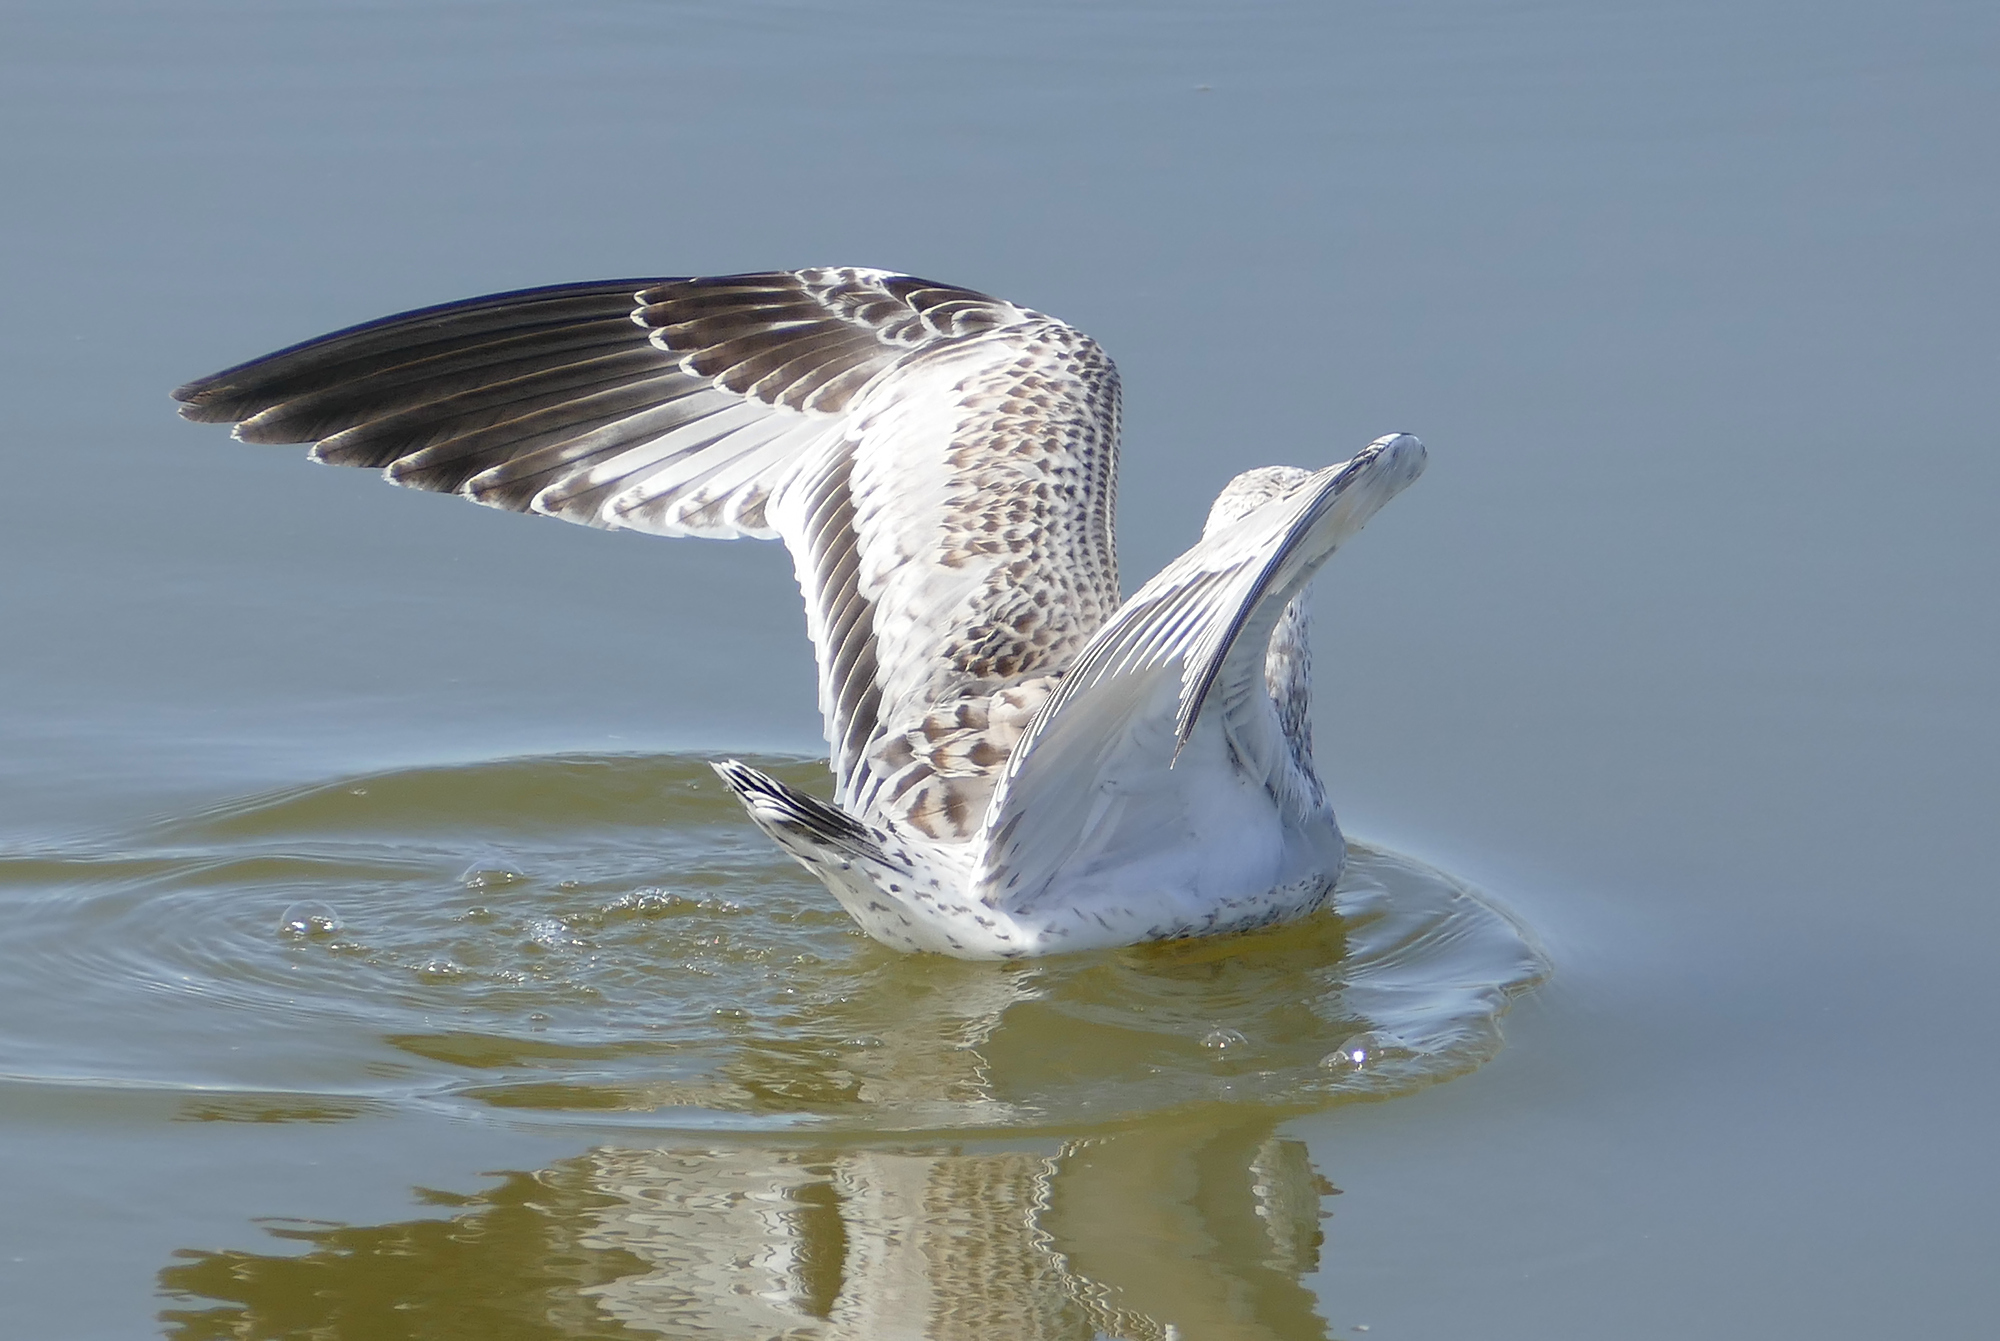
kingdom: Animalia
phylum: Chordata
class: Aves
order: Charadriiformes
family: Laridae
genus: Larus
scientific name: Larus delawarensis
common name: Ring-billed gull
